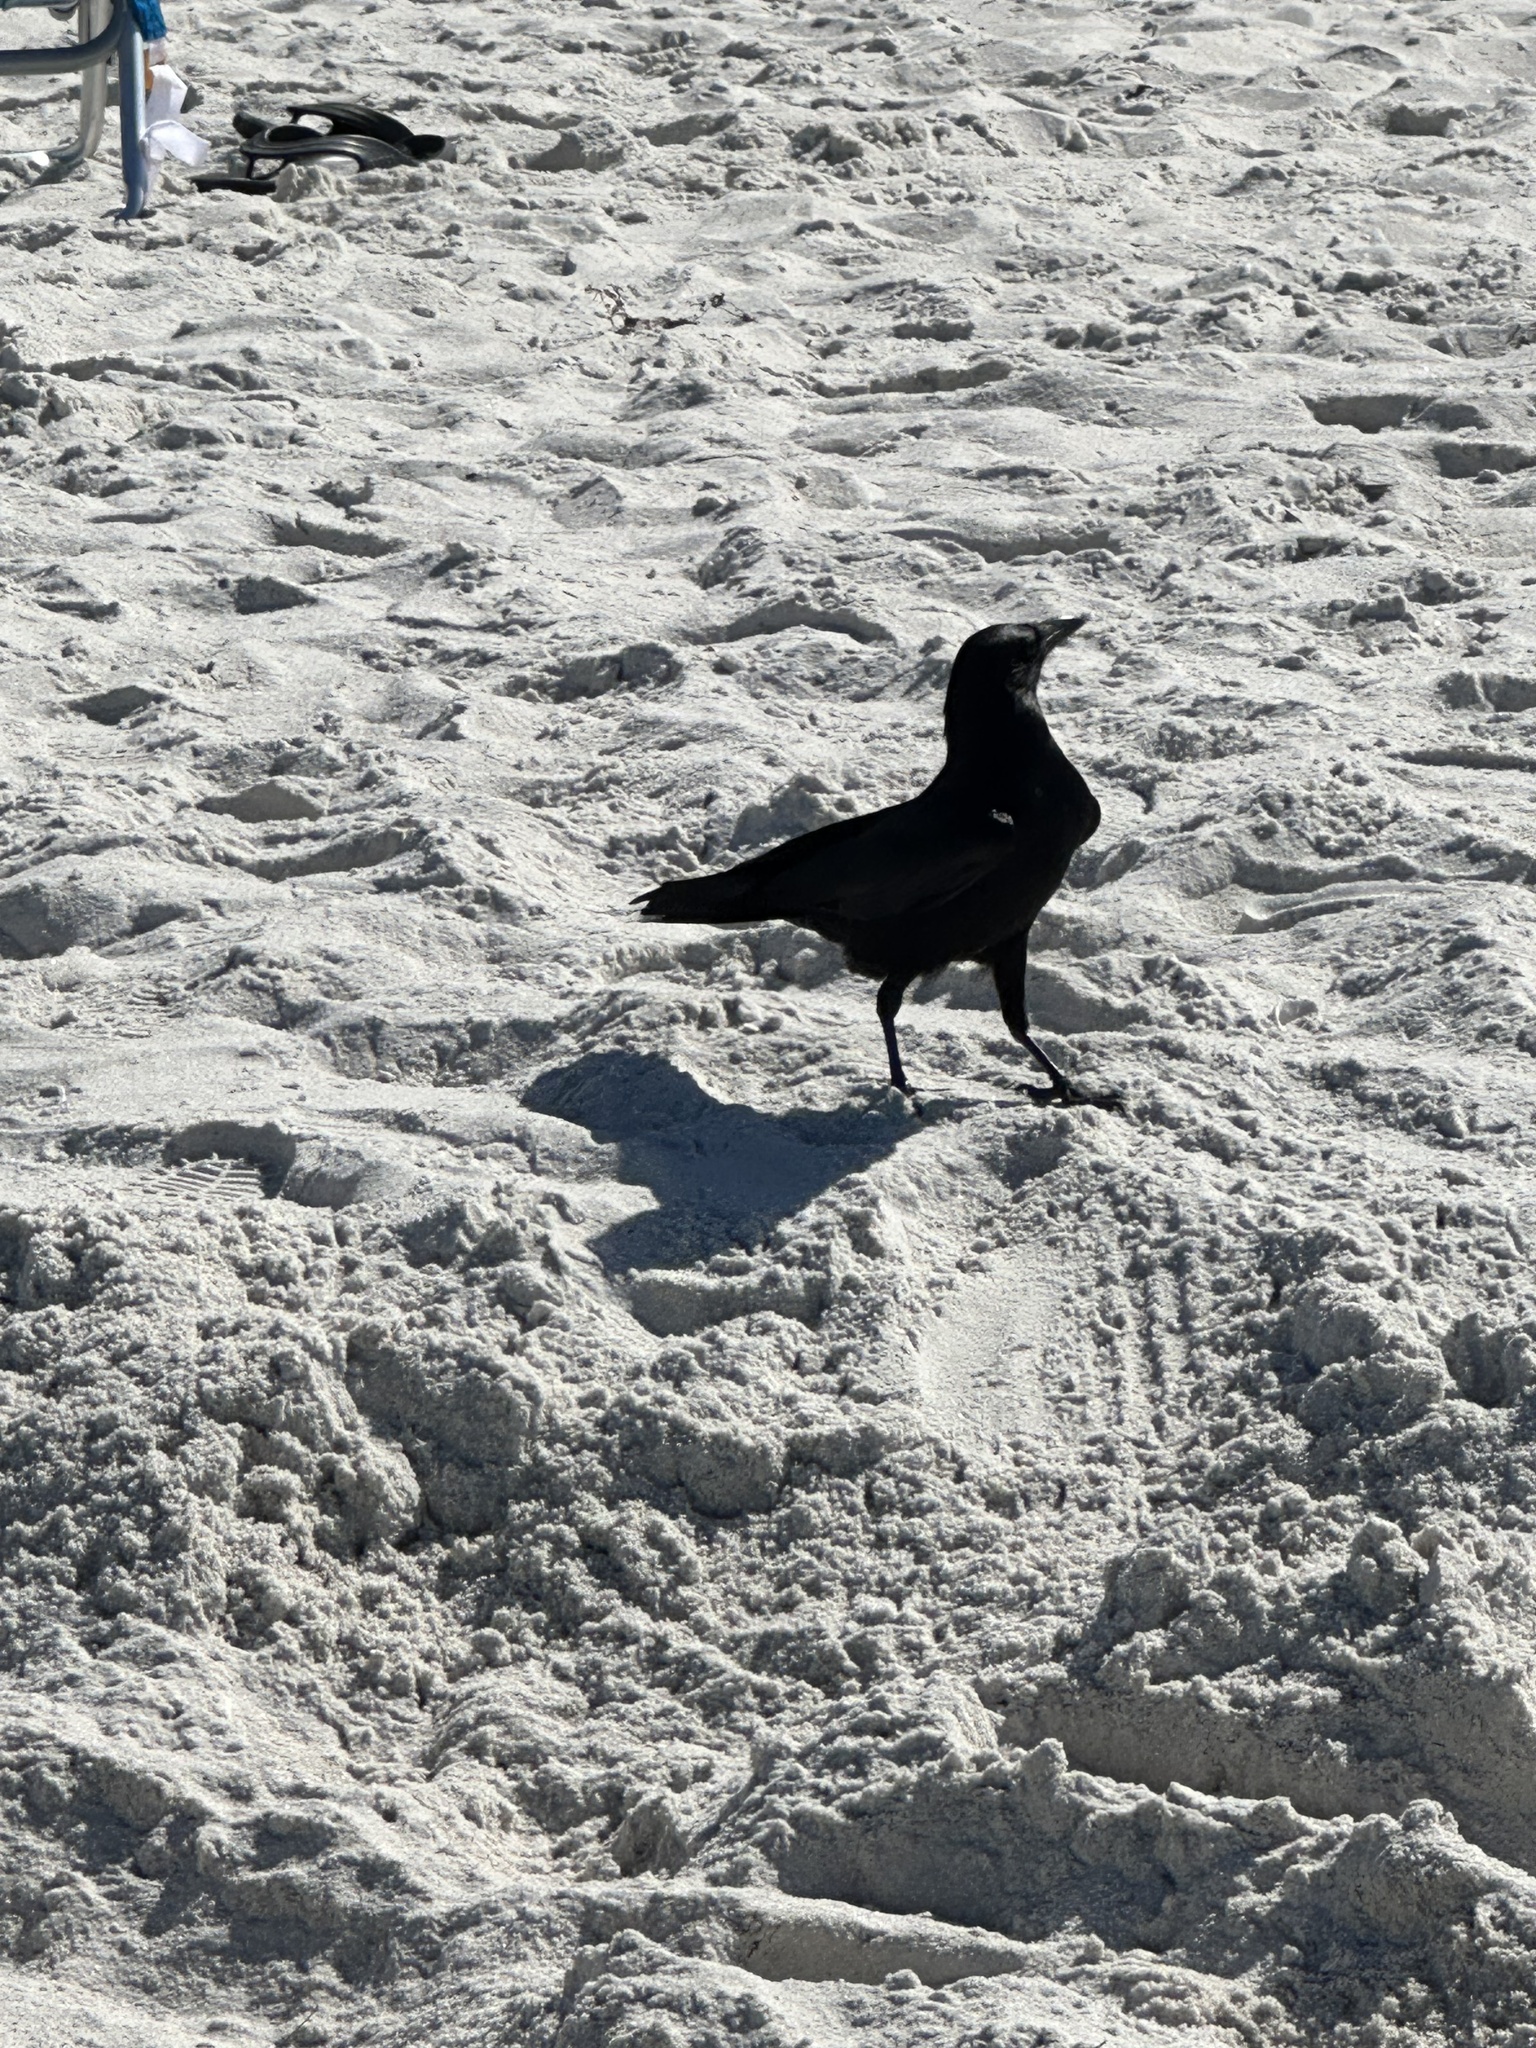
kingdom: Animalia
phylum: Chordata
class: Aves
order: Passeriformes
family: Corvidae
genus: Corvus
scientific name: Corvus
